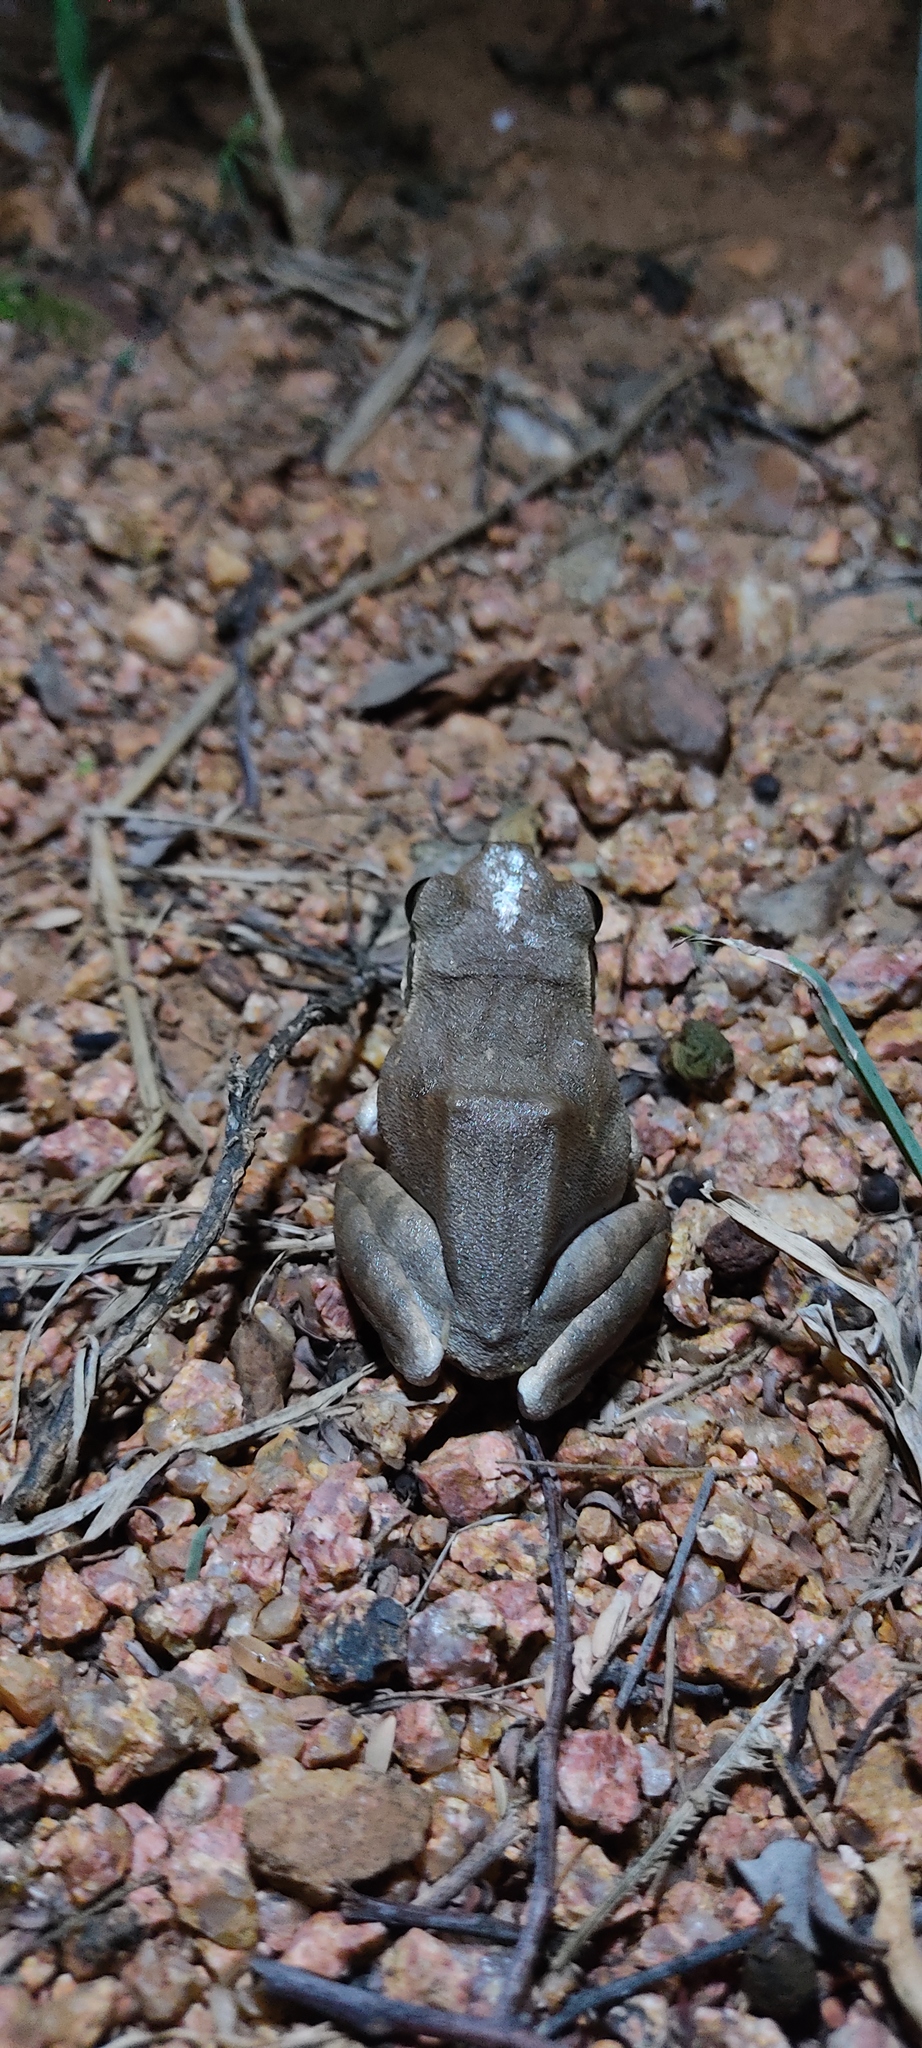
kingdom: Animalia
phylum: Chordata
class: Amphibia
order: Anura
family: Rhacophoridae
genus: Polypedates
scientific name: Polypedates maculatus
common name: Himalayan tree frog
